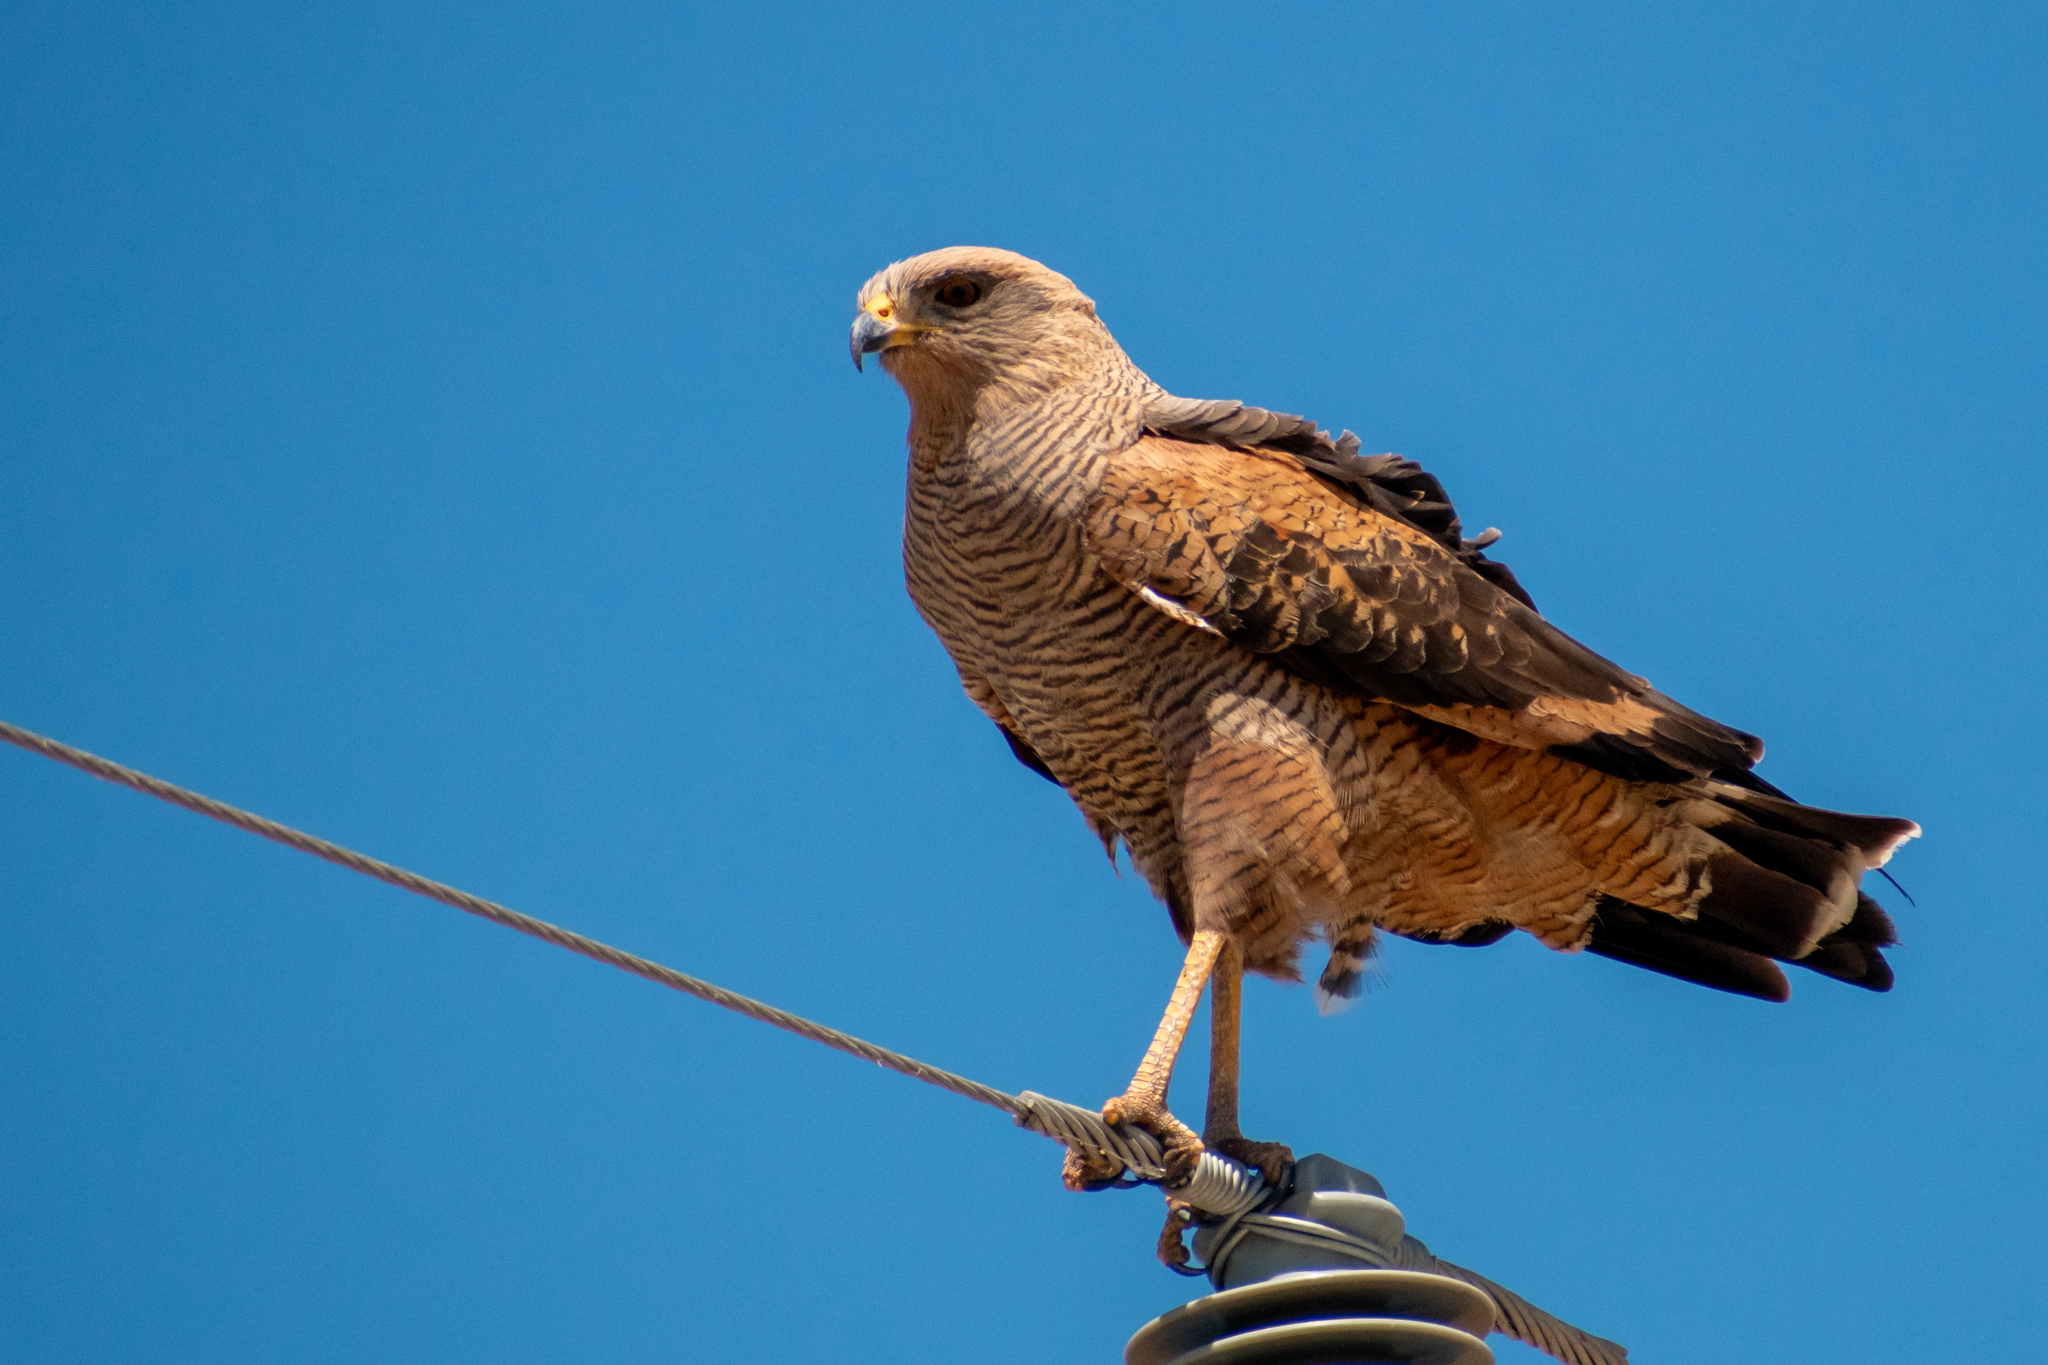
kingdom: Animalia
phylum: Chordata
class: Aves
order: Accipitriformes
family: Accipitridae
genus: Buteogallus
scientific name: Buteogallus meridionalis
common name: Savanna hawk
